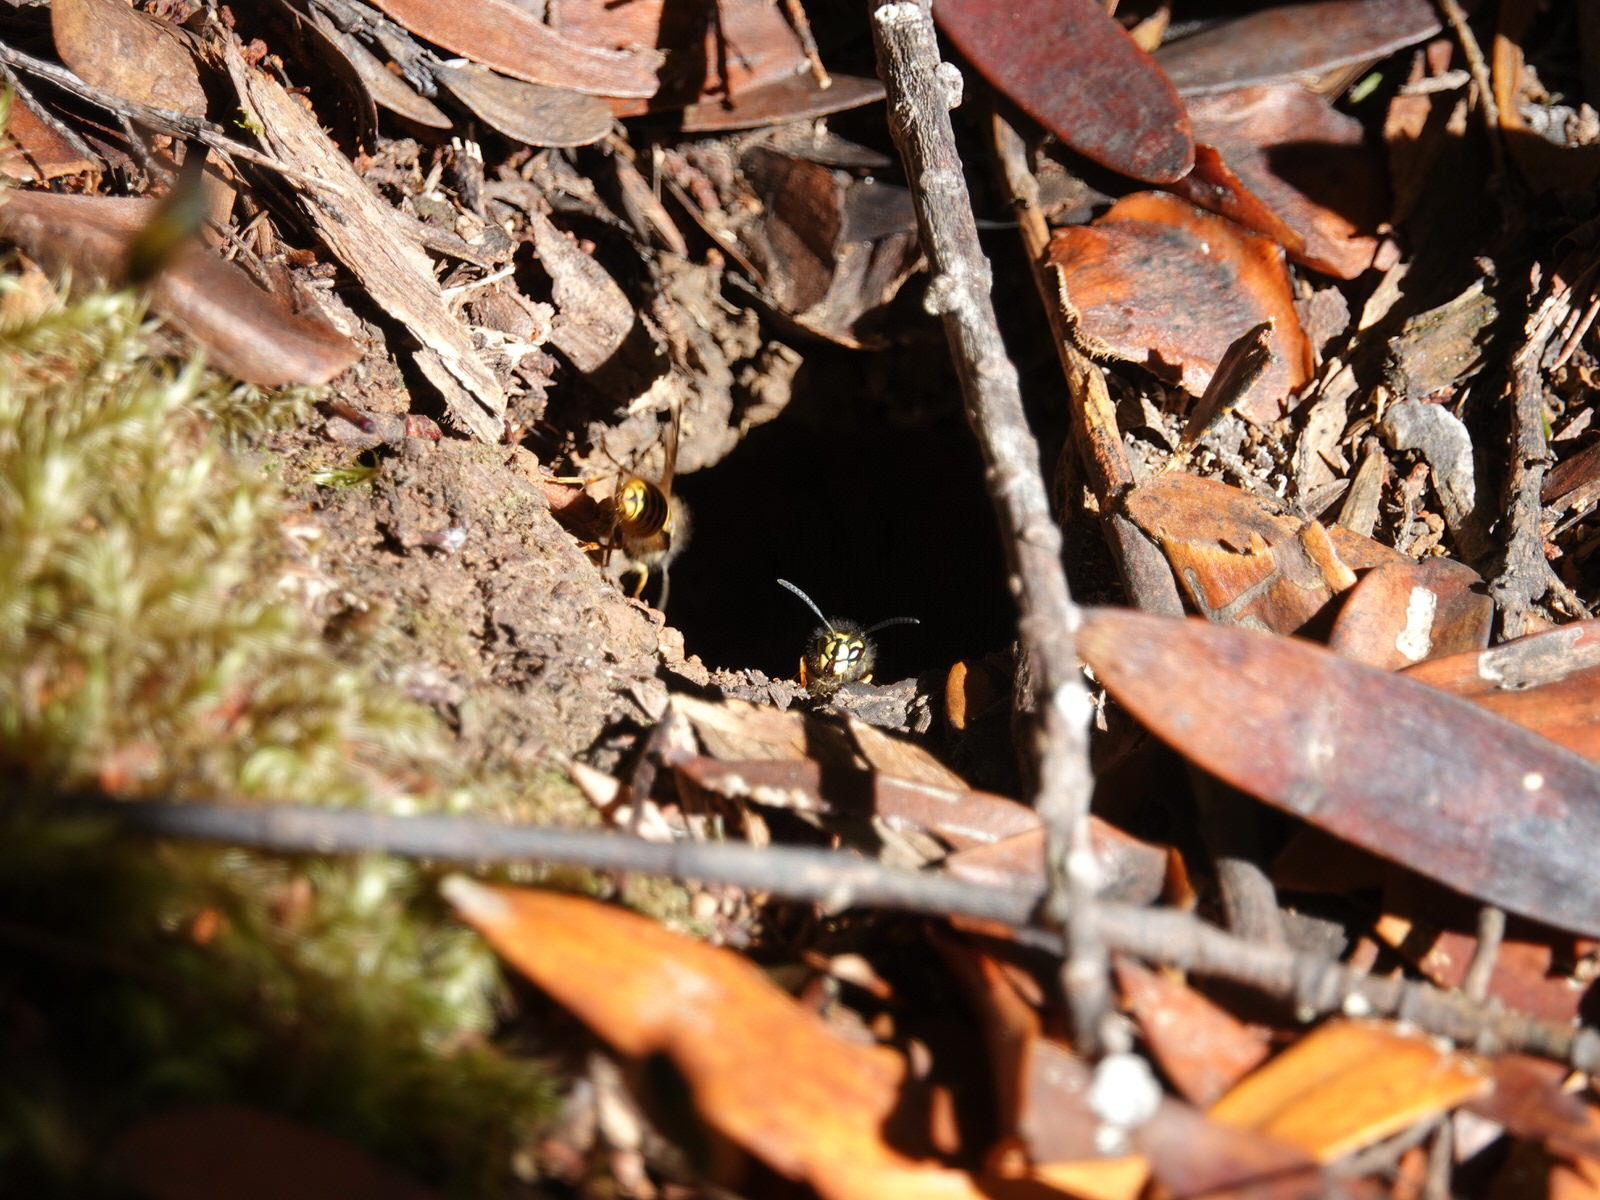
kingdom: Animalia
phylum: Arthropoda
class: Insecta
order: Hymenoptera
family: Vespidae
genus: Vespula
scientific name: Vespula vulgaris
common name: Common wasp
